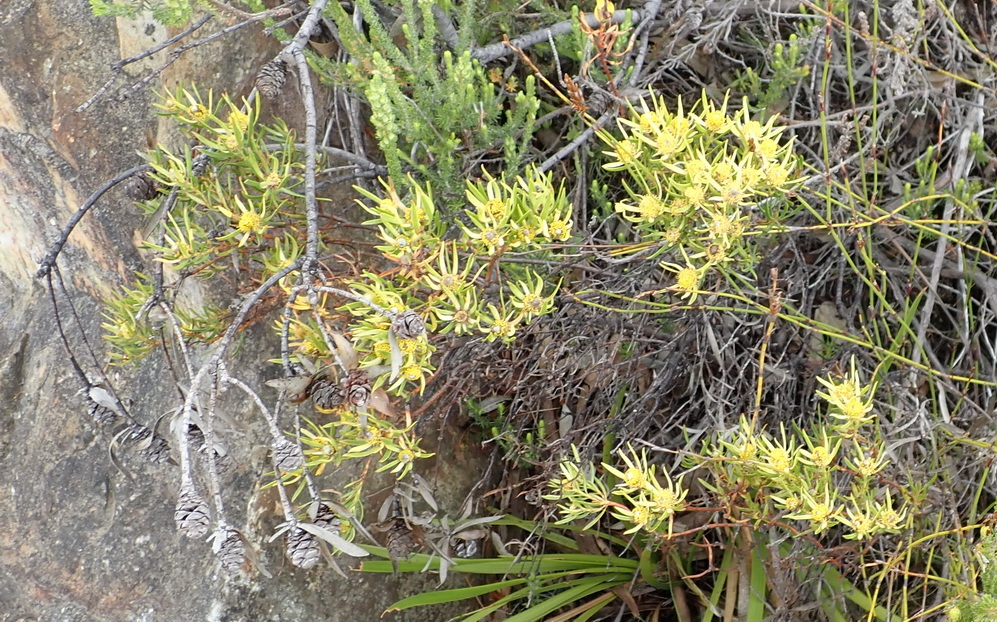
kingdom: Plantae
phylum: Tracheophyta
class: Magnoliopsida
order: Proteales
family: Proteaceae
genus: Leucadendron
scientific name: Leucadendron salignum
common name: Common sunshine conebush
